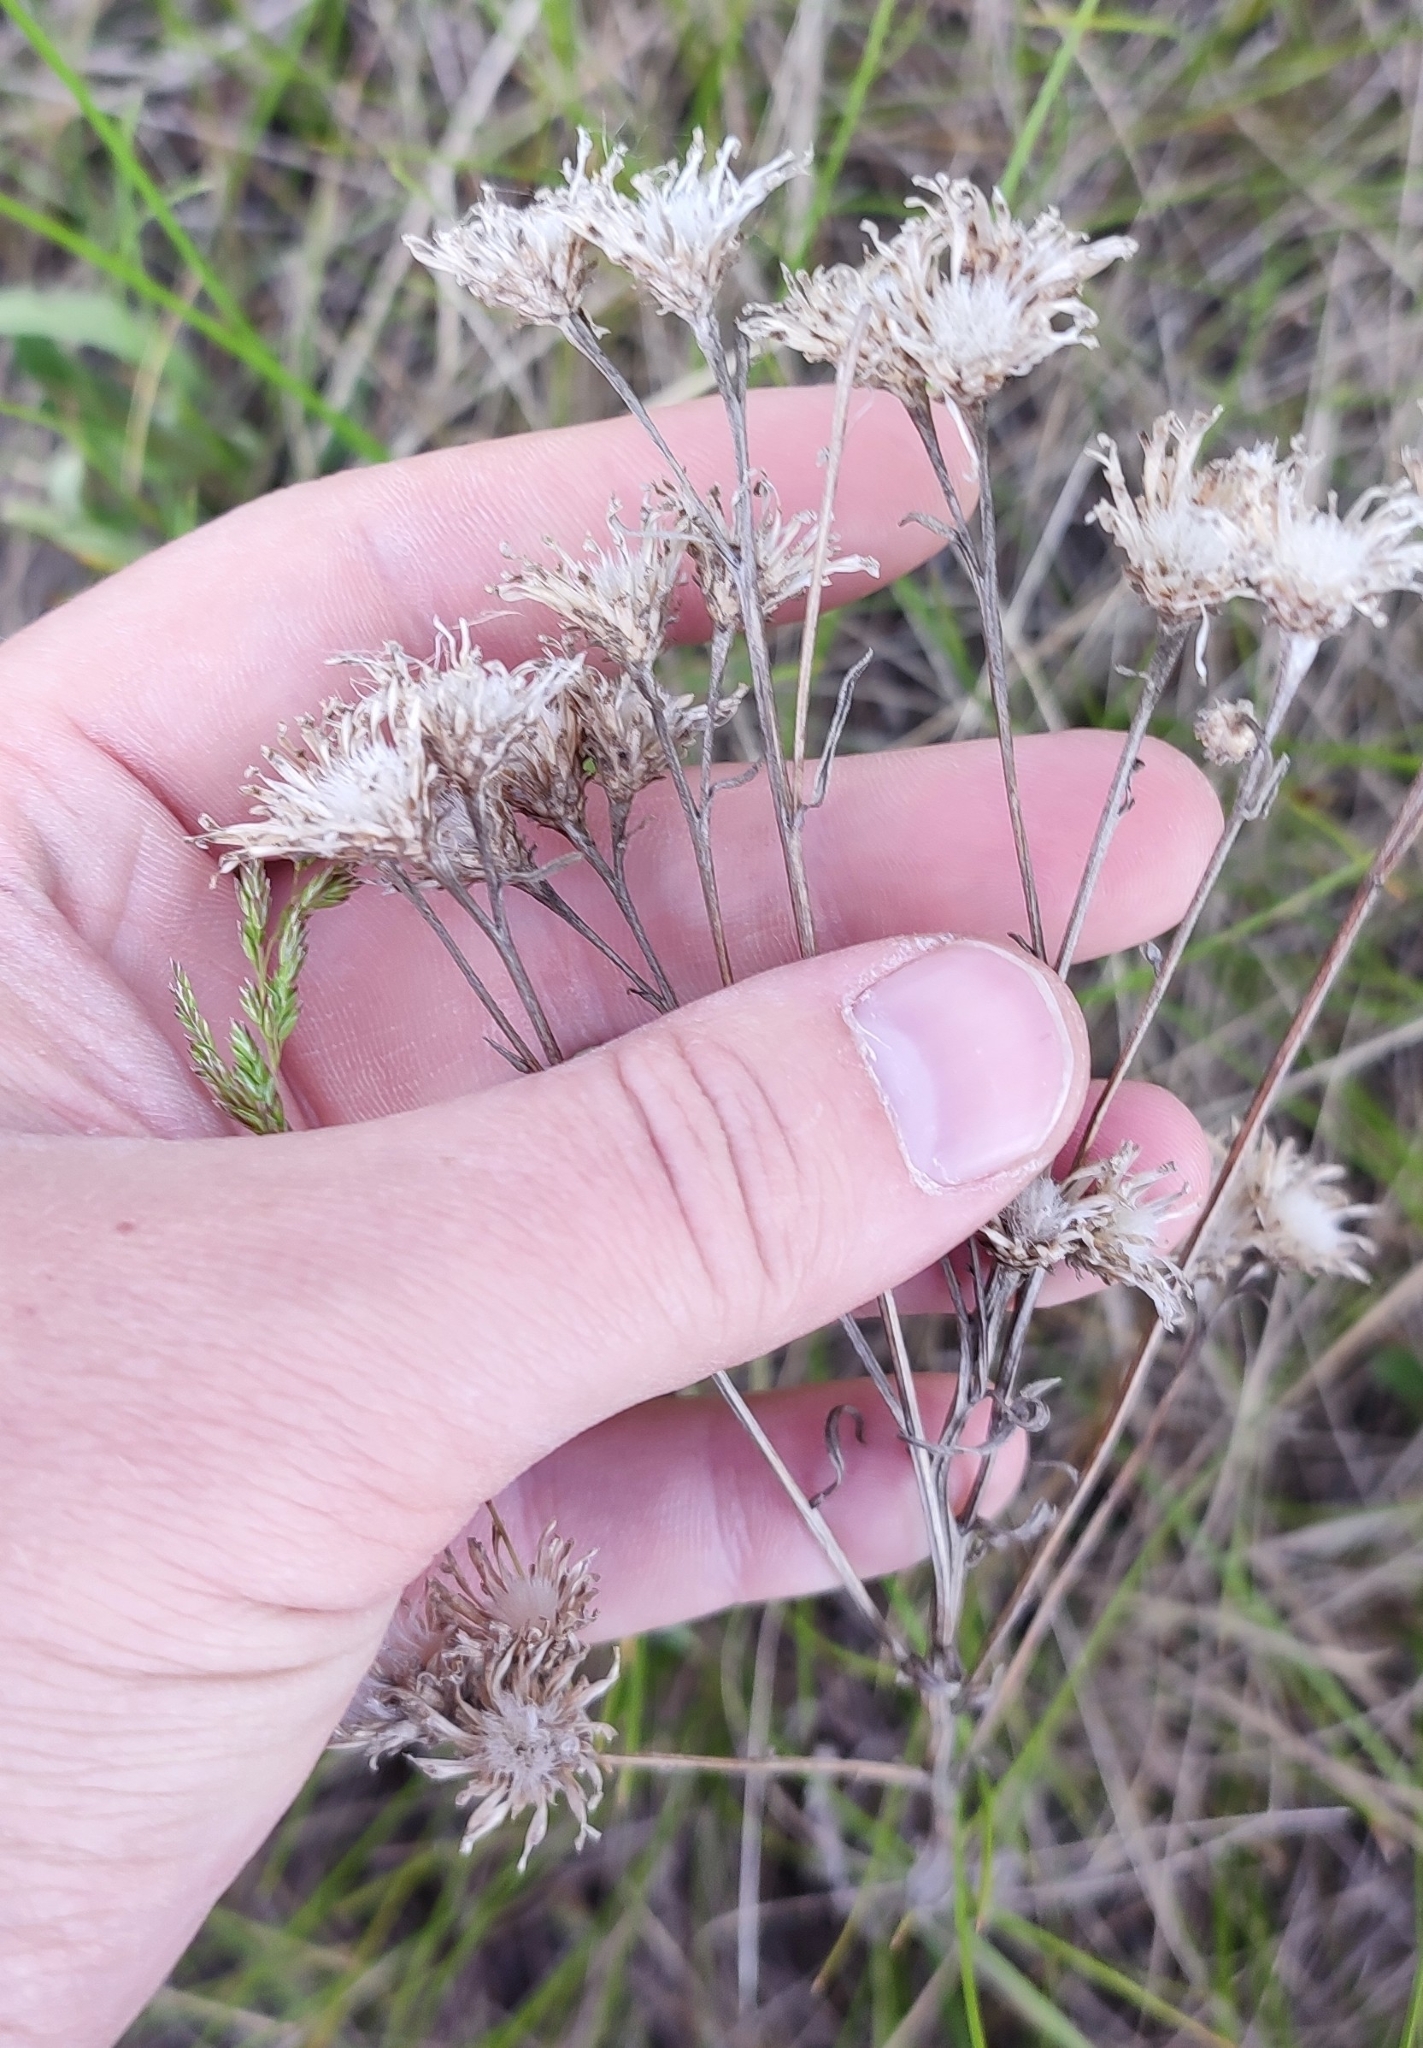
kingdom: Plantae
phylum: Tracheophyta
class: Magnoliopsida
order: Asterales
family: Asteraceae
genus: Saussurea
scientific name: Saussurea amara
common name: Alberta sawwort
